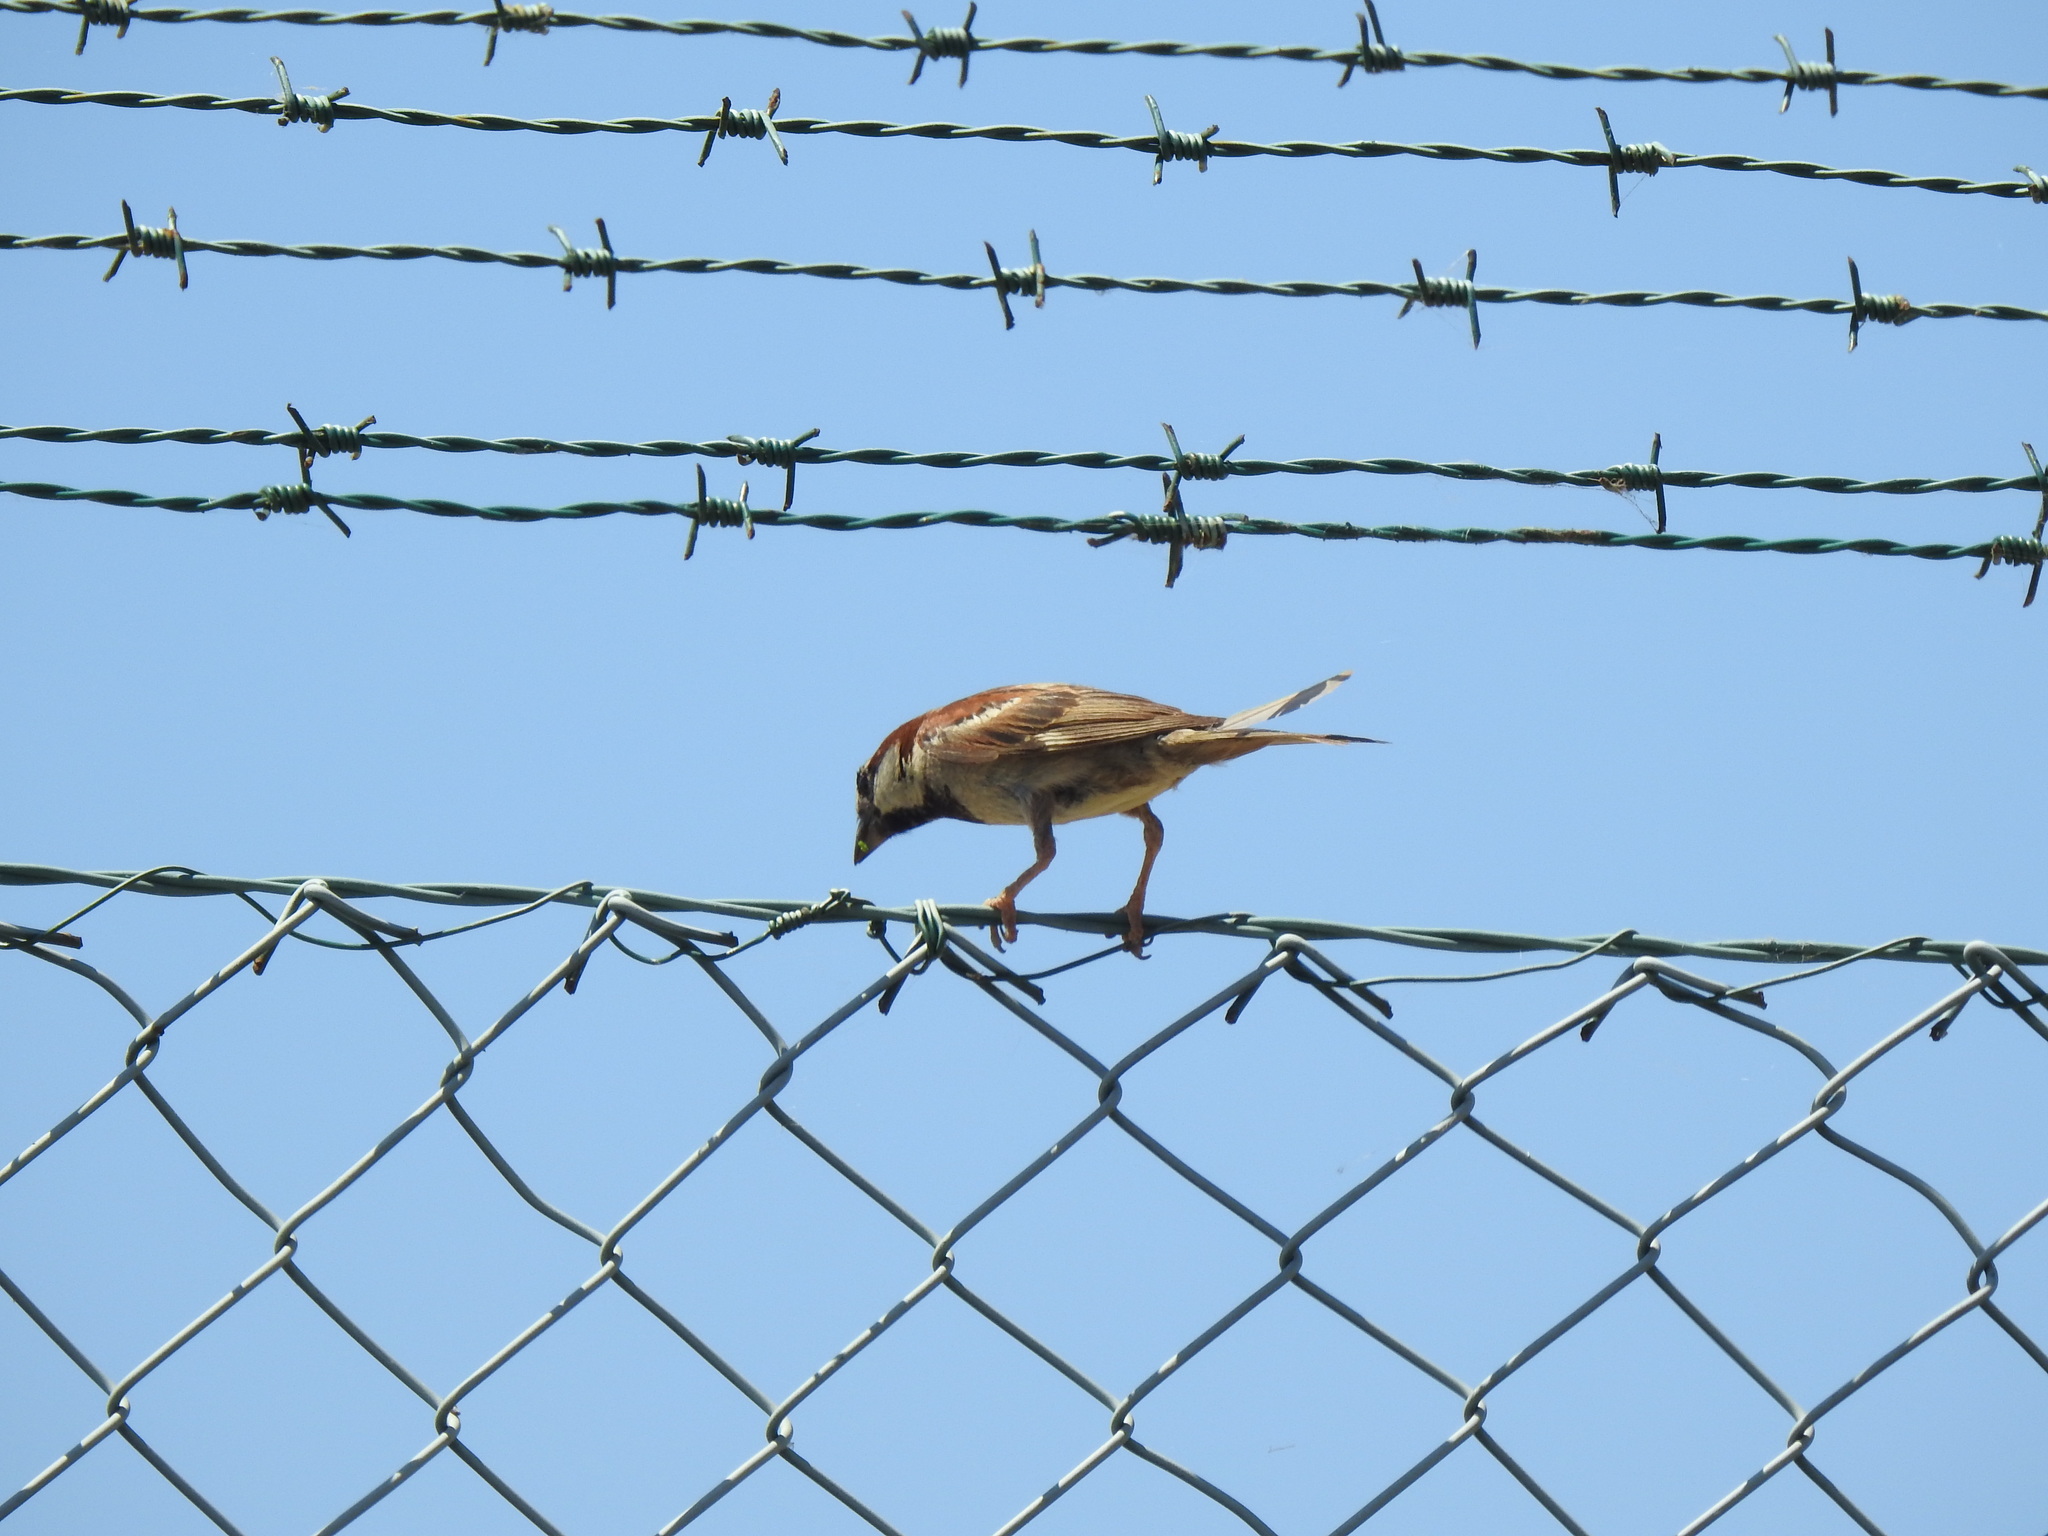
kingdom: Animalia
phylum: Chordata
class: Aves
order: Passeriformes
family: Passeridae
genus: Passer
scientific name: Passer domesticus
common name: House sparrow
